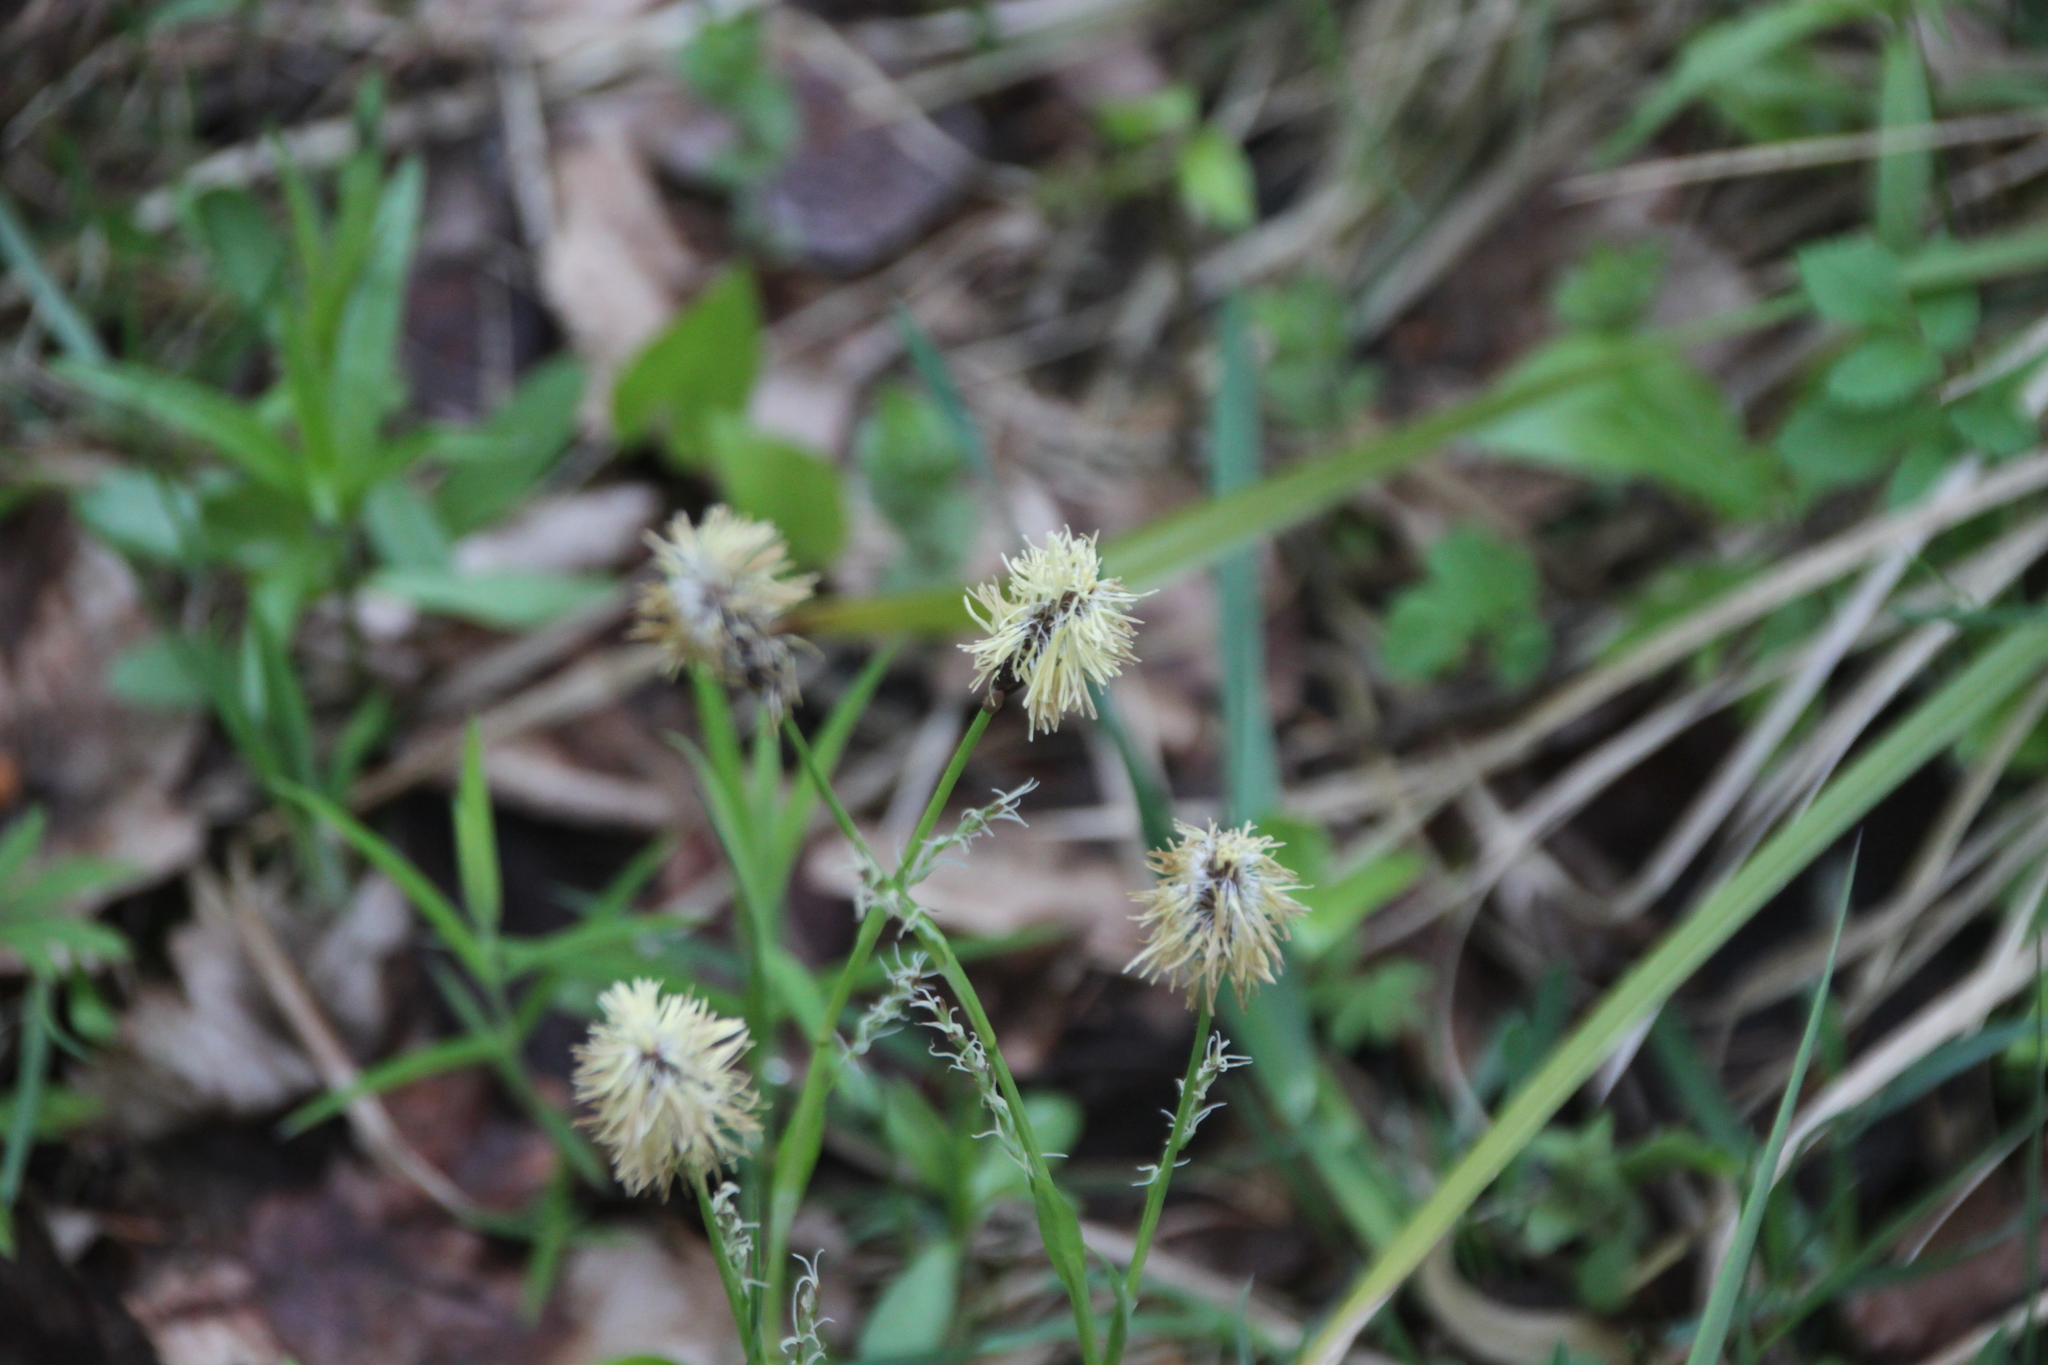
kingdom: Plantae
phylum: Tracheophyta
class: Liliopsida
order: Poales
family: Cyperaceae
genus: Carex
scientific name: Carex pilosa
